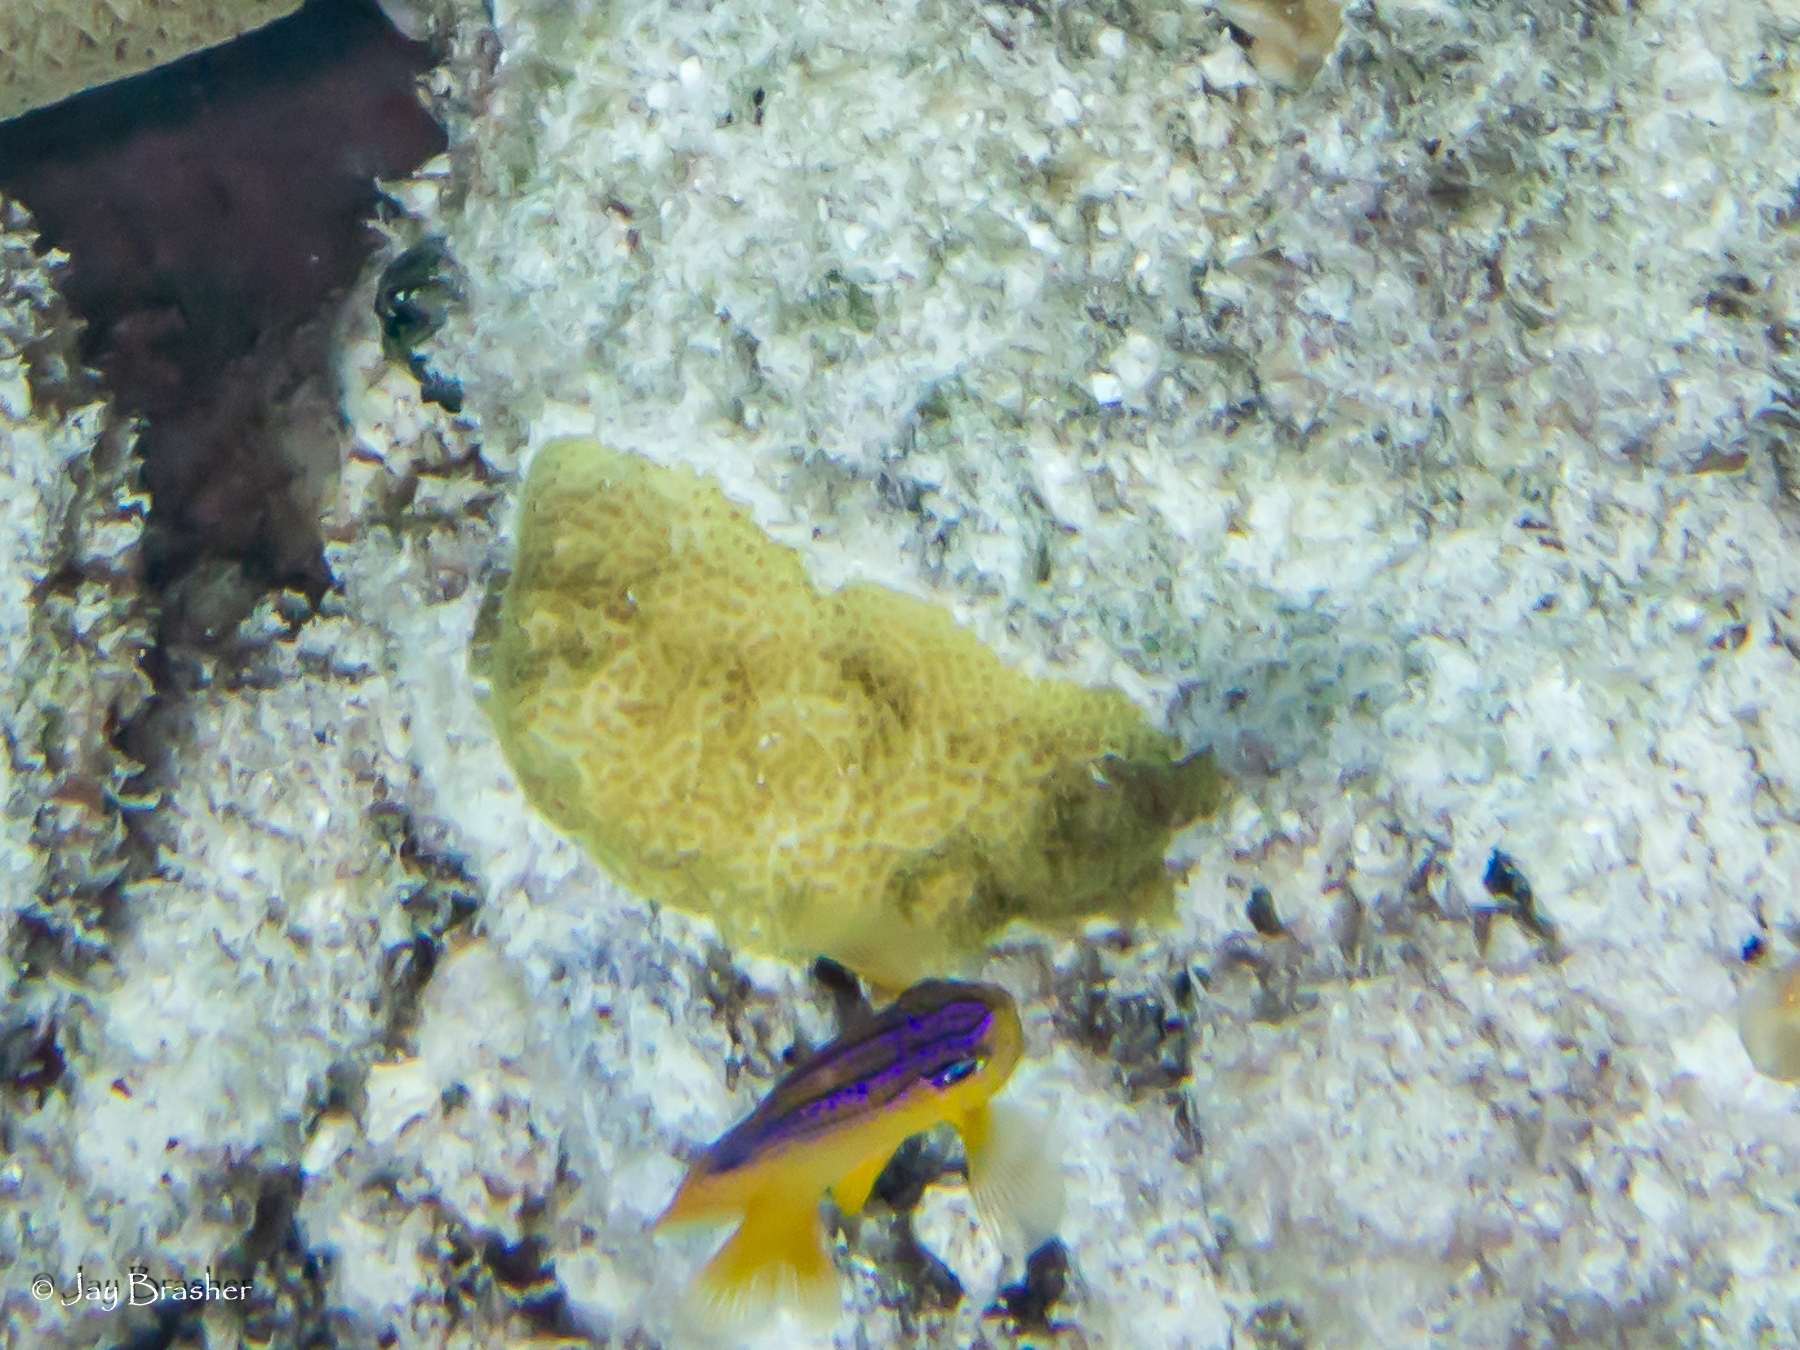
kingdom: Animalia
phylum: Chordata
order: Perciformes
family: Pomacentridae
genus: Stegastes
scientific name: Stegastes diencaeus
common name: Longfin damselfish
